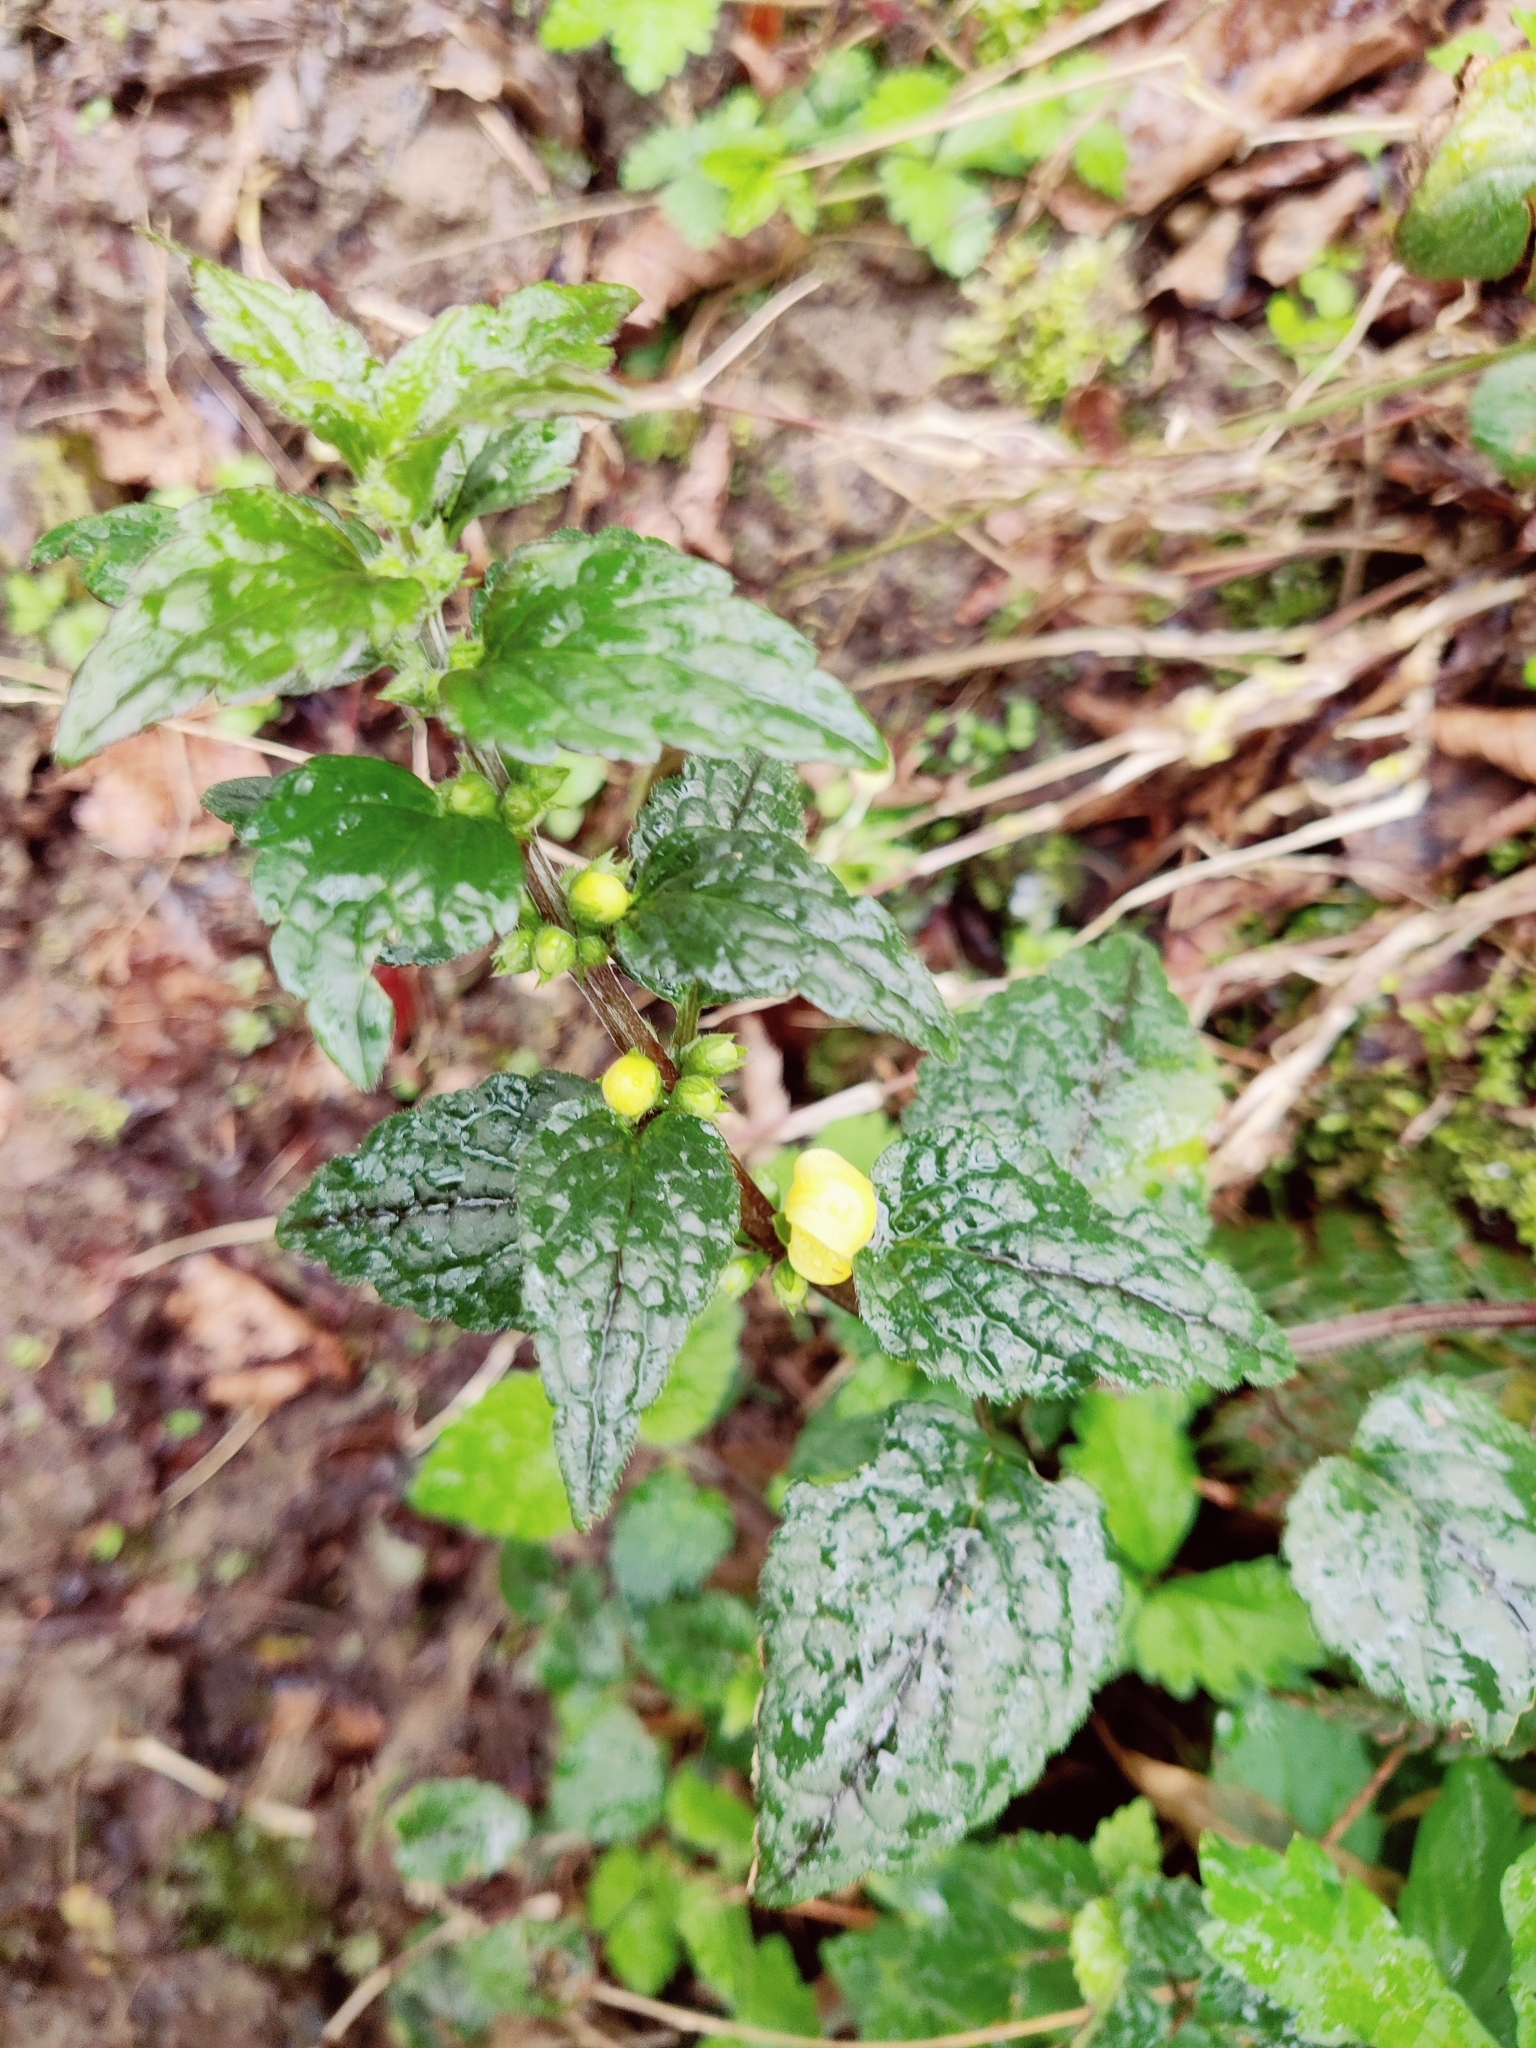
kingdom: Plantae
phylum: Tracheophyta
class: Magnoliopsida
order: Lamiales
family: Lamiaceae
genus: Lamium
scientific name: Lamium galeobdolon
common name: Yellow archangel
